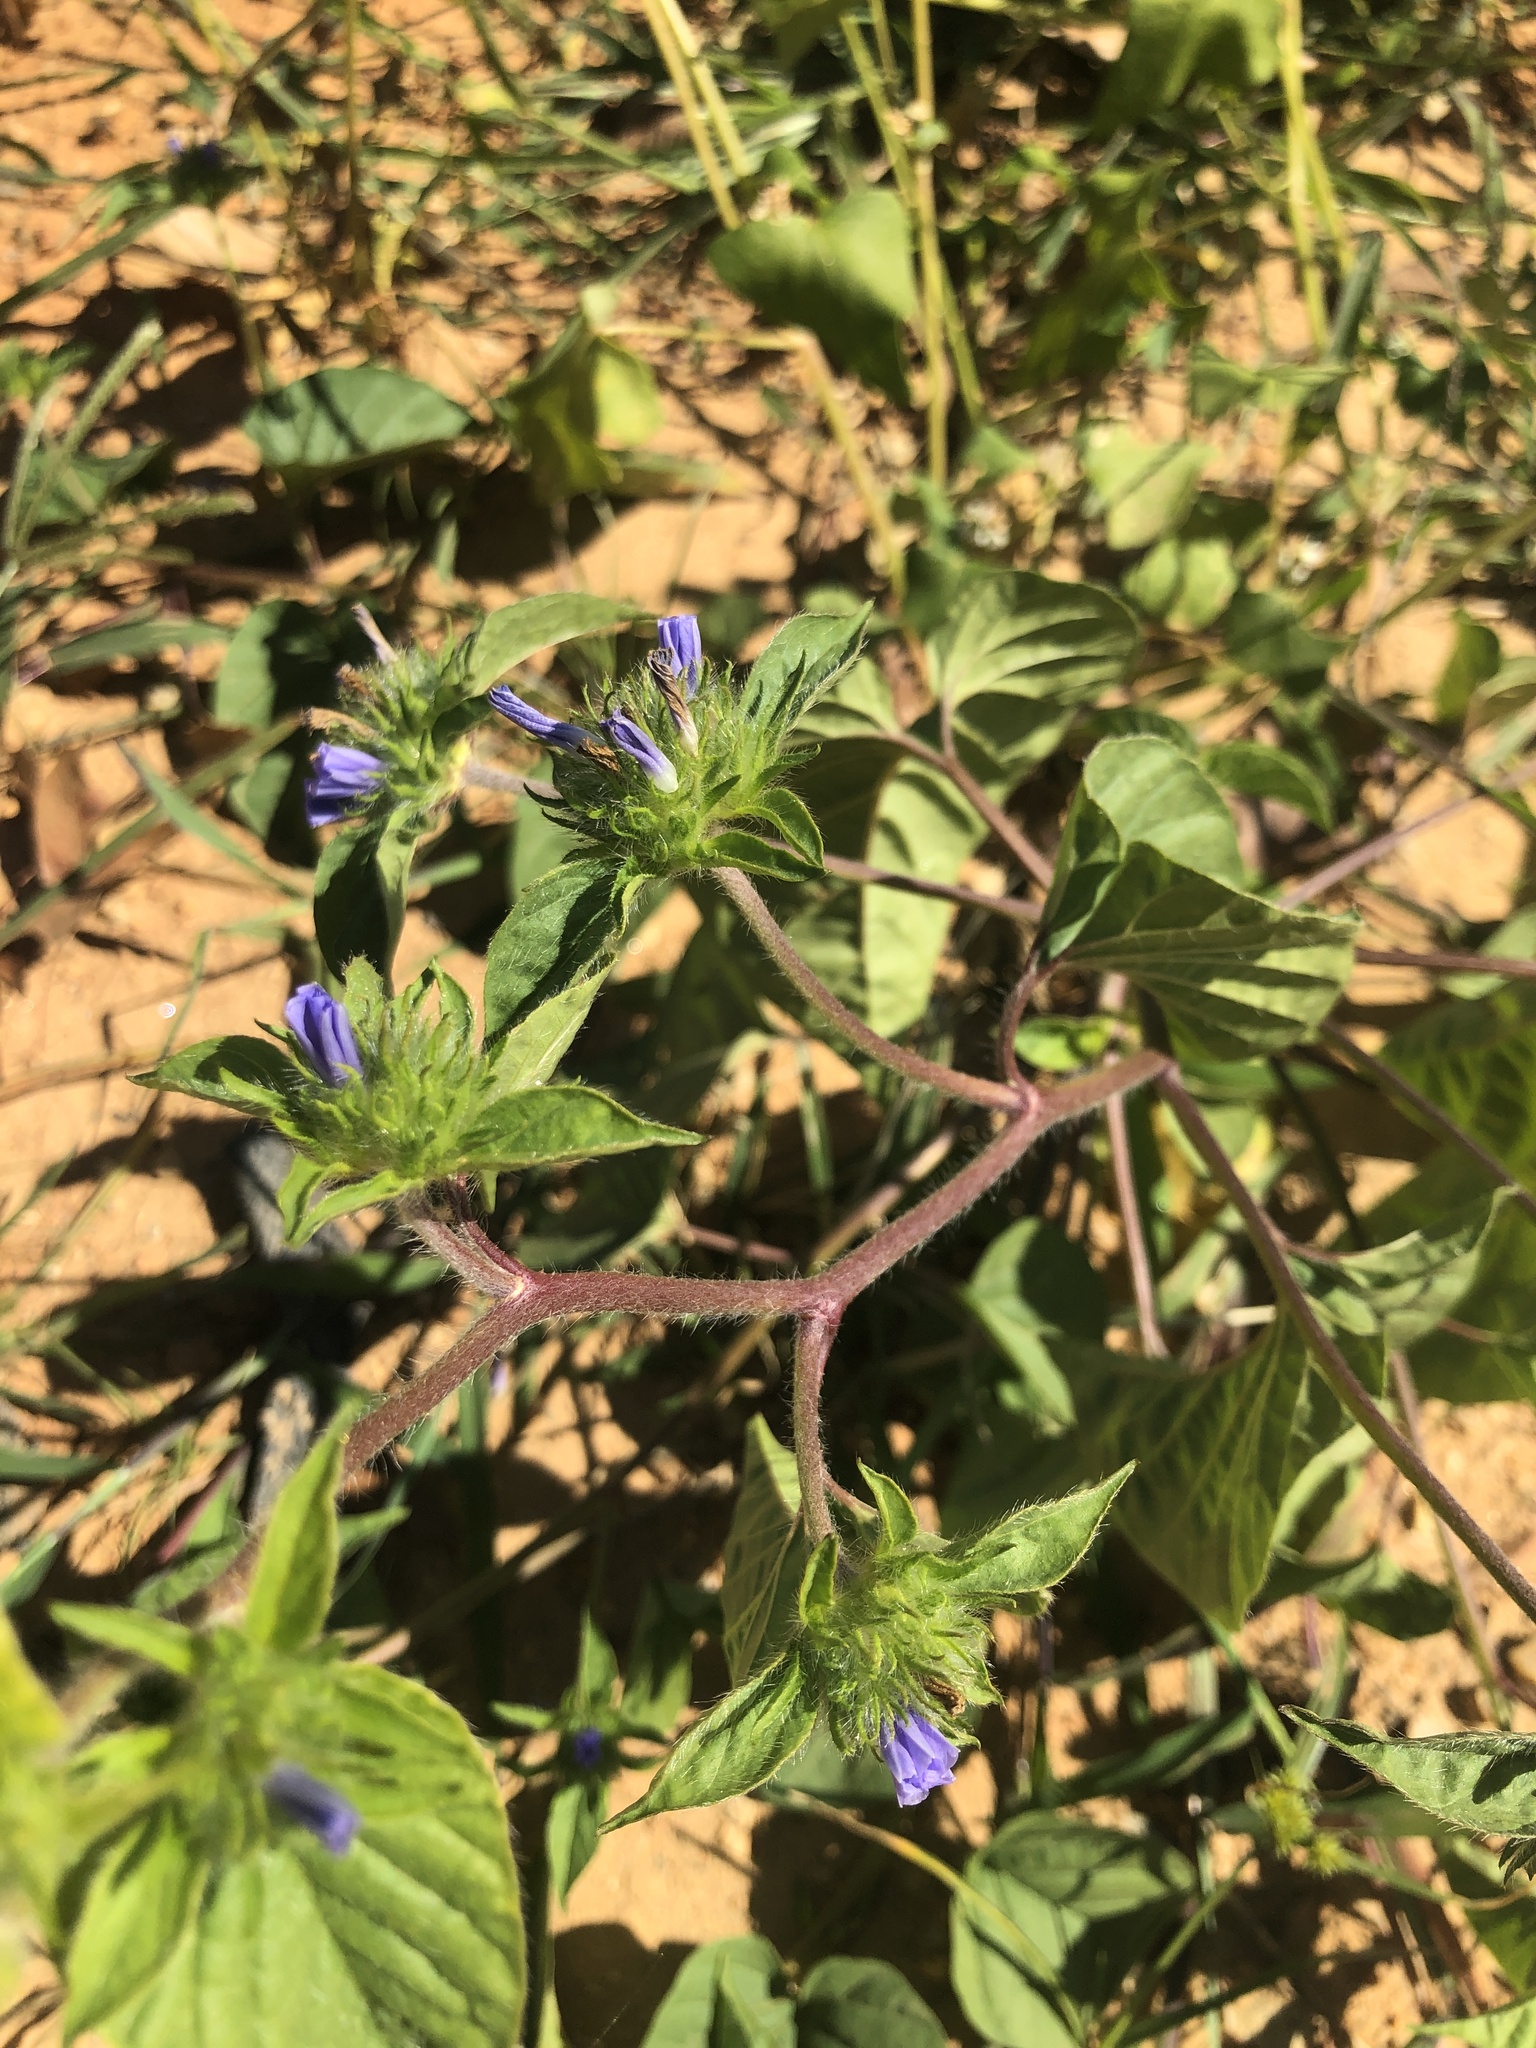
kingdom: Plantae
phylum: Tracheophyta
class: Magnoliopsida
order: Solanales
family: Convolvulaceae
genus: Jacquemontia
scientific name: Jacquemontia tamnifolia
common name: Hairy clustervine
